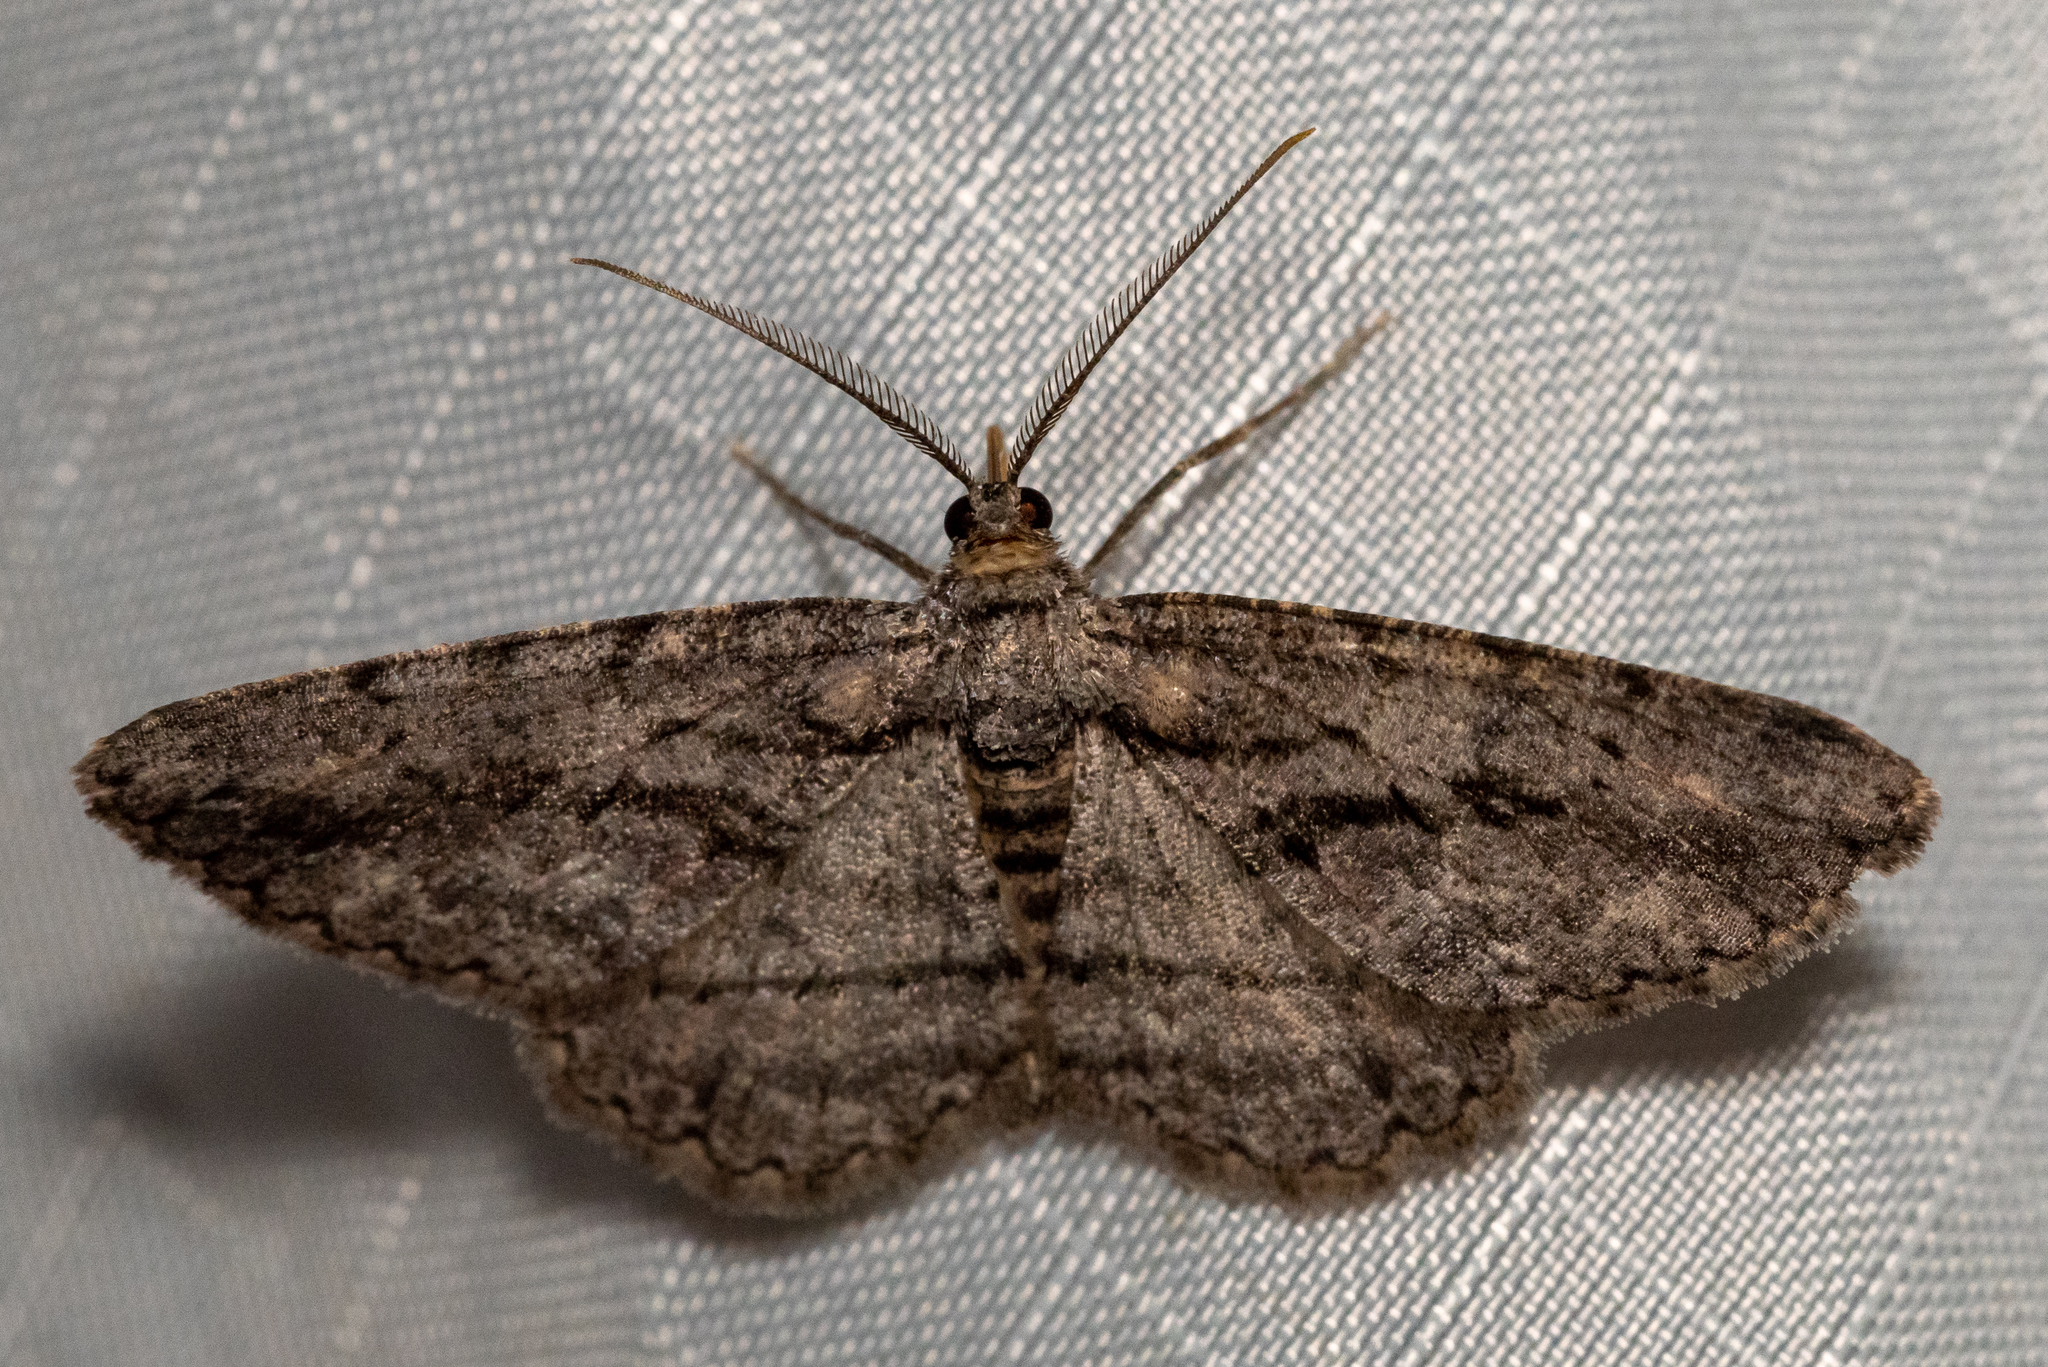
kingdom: Animalia
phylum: Arthropoda
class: Insecta
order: Lepidoptera
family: Geometridae
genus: Anavitrinella
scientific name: Anavitrinella pampinaria
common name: Common gray
